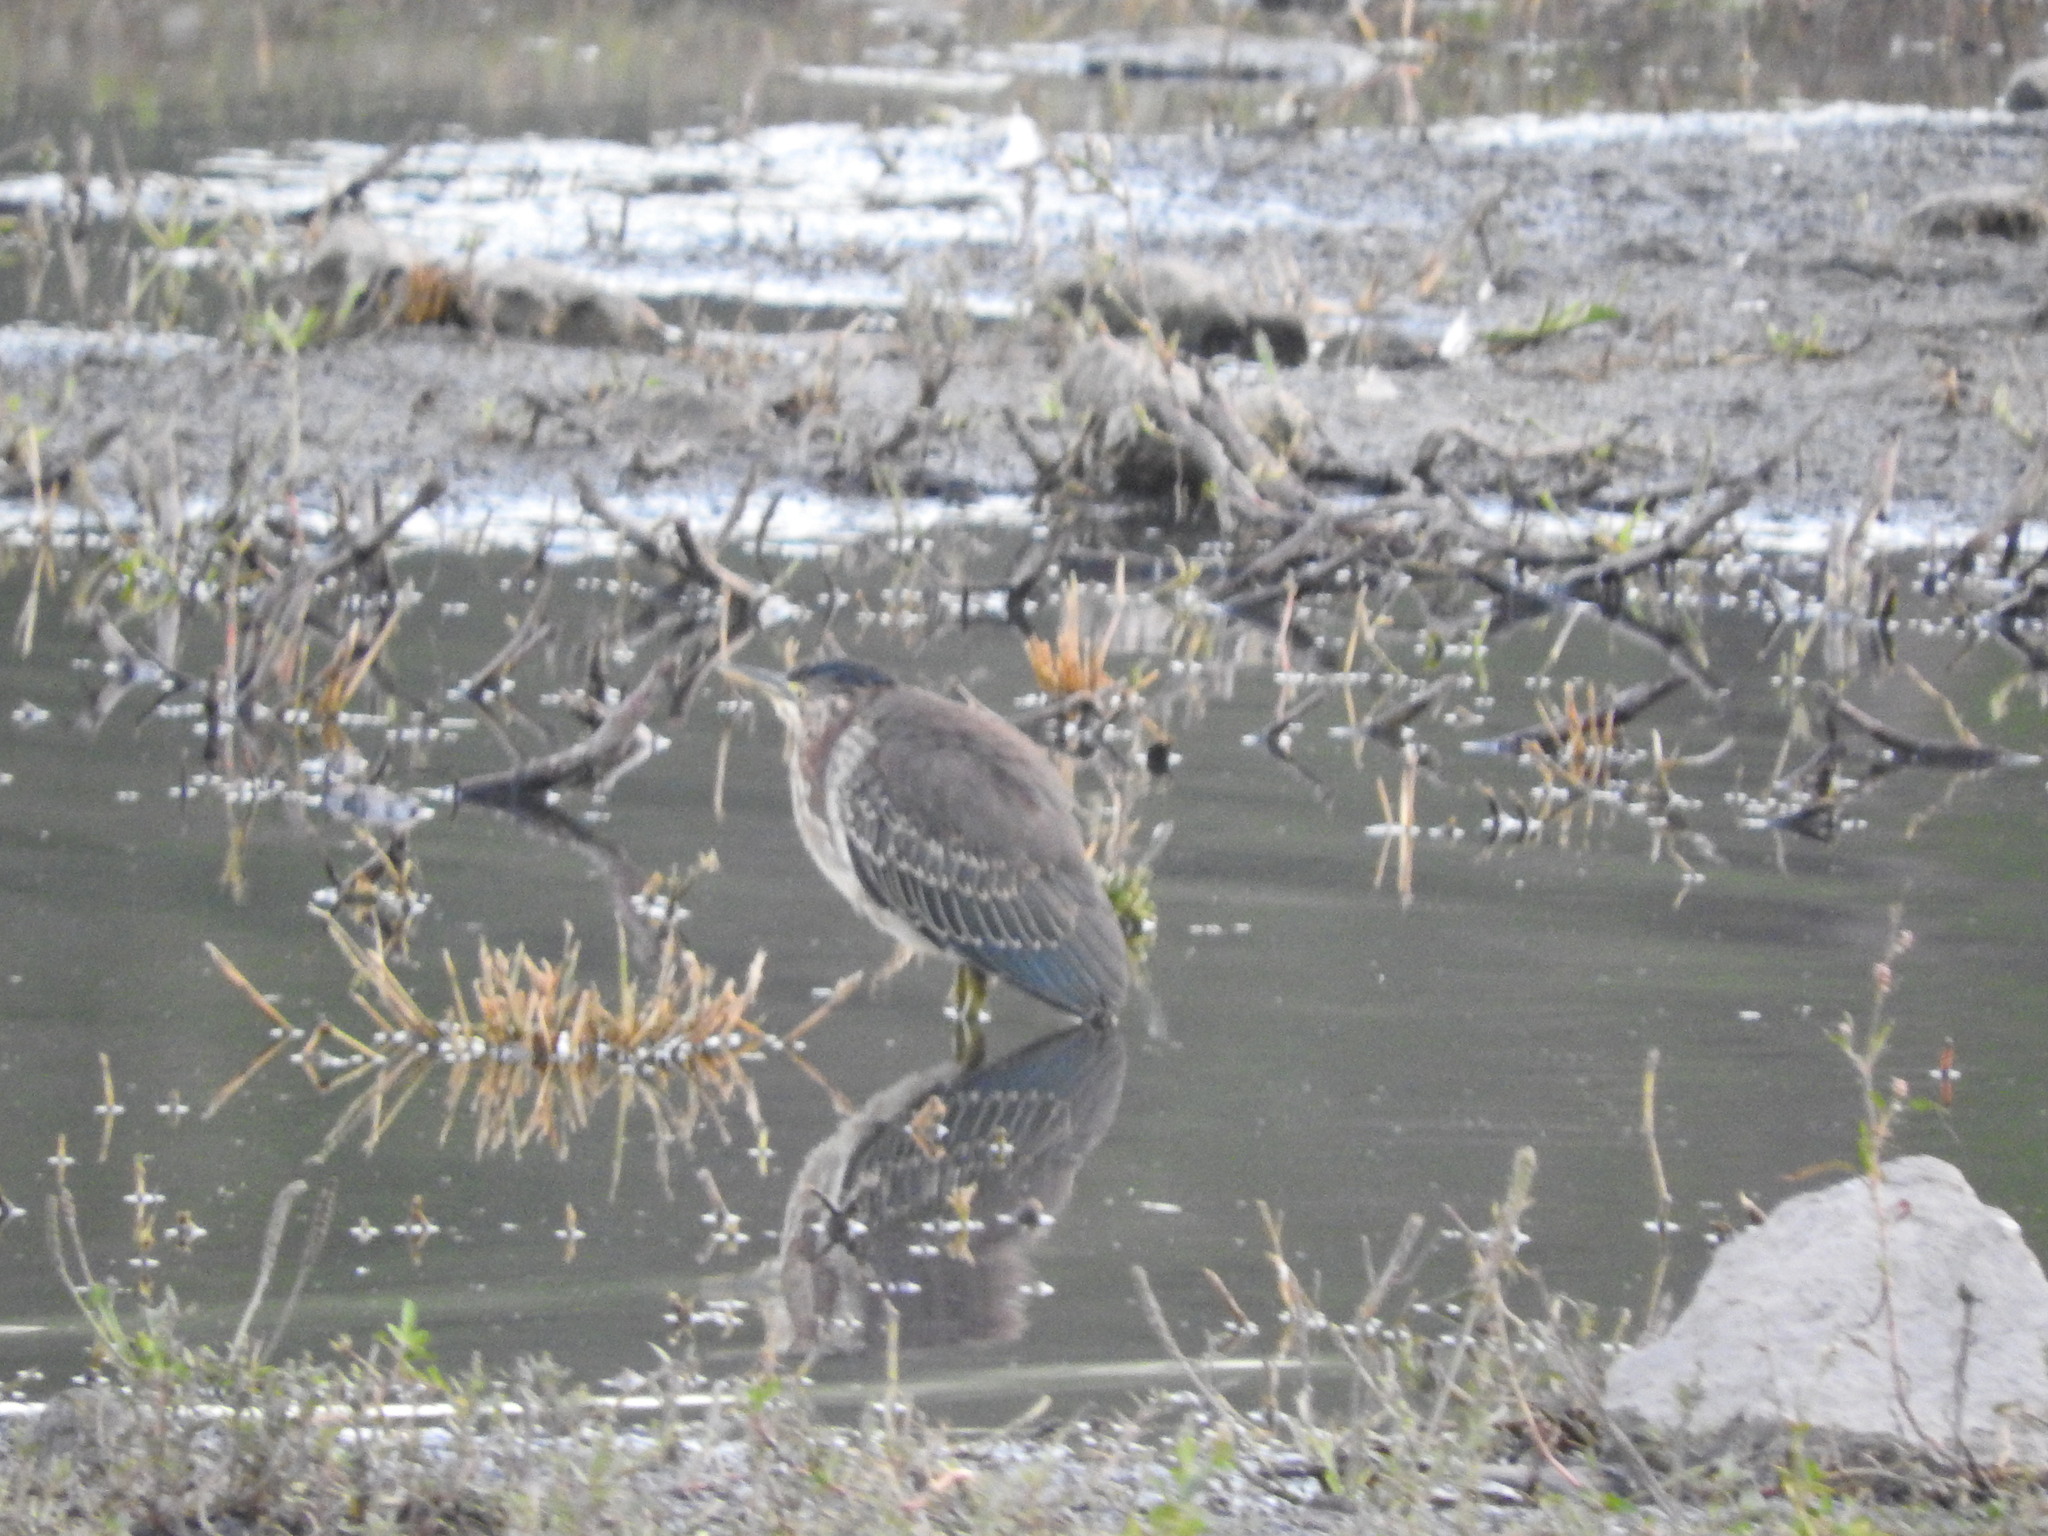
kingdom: Animalia
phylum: Chordata
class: Aves
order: Pelecaniformes
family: Ardeidae
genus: Butorides
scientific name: Butorides virescens
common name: Green heron
